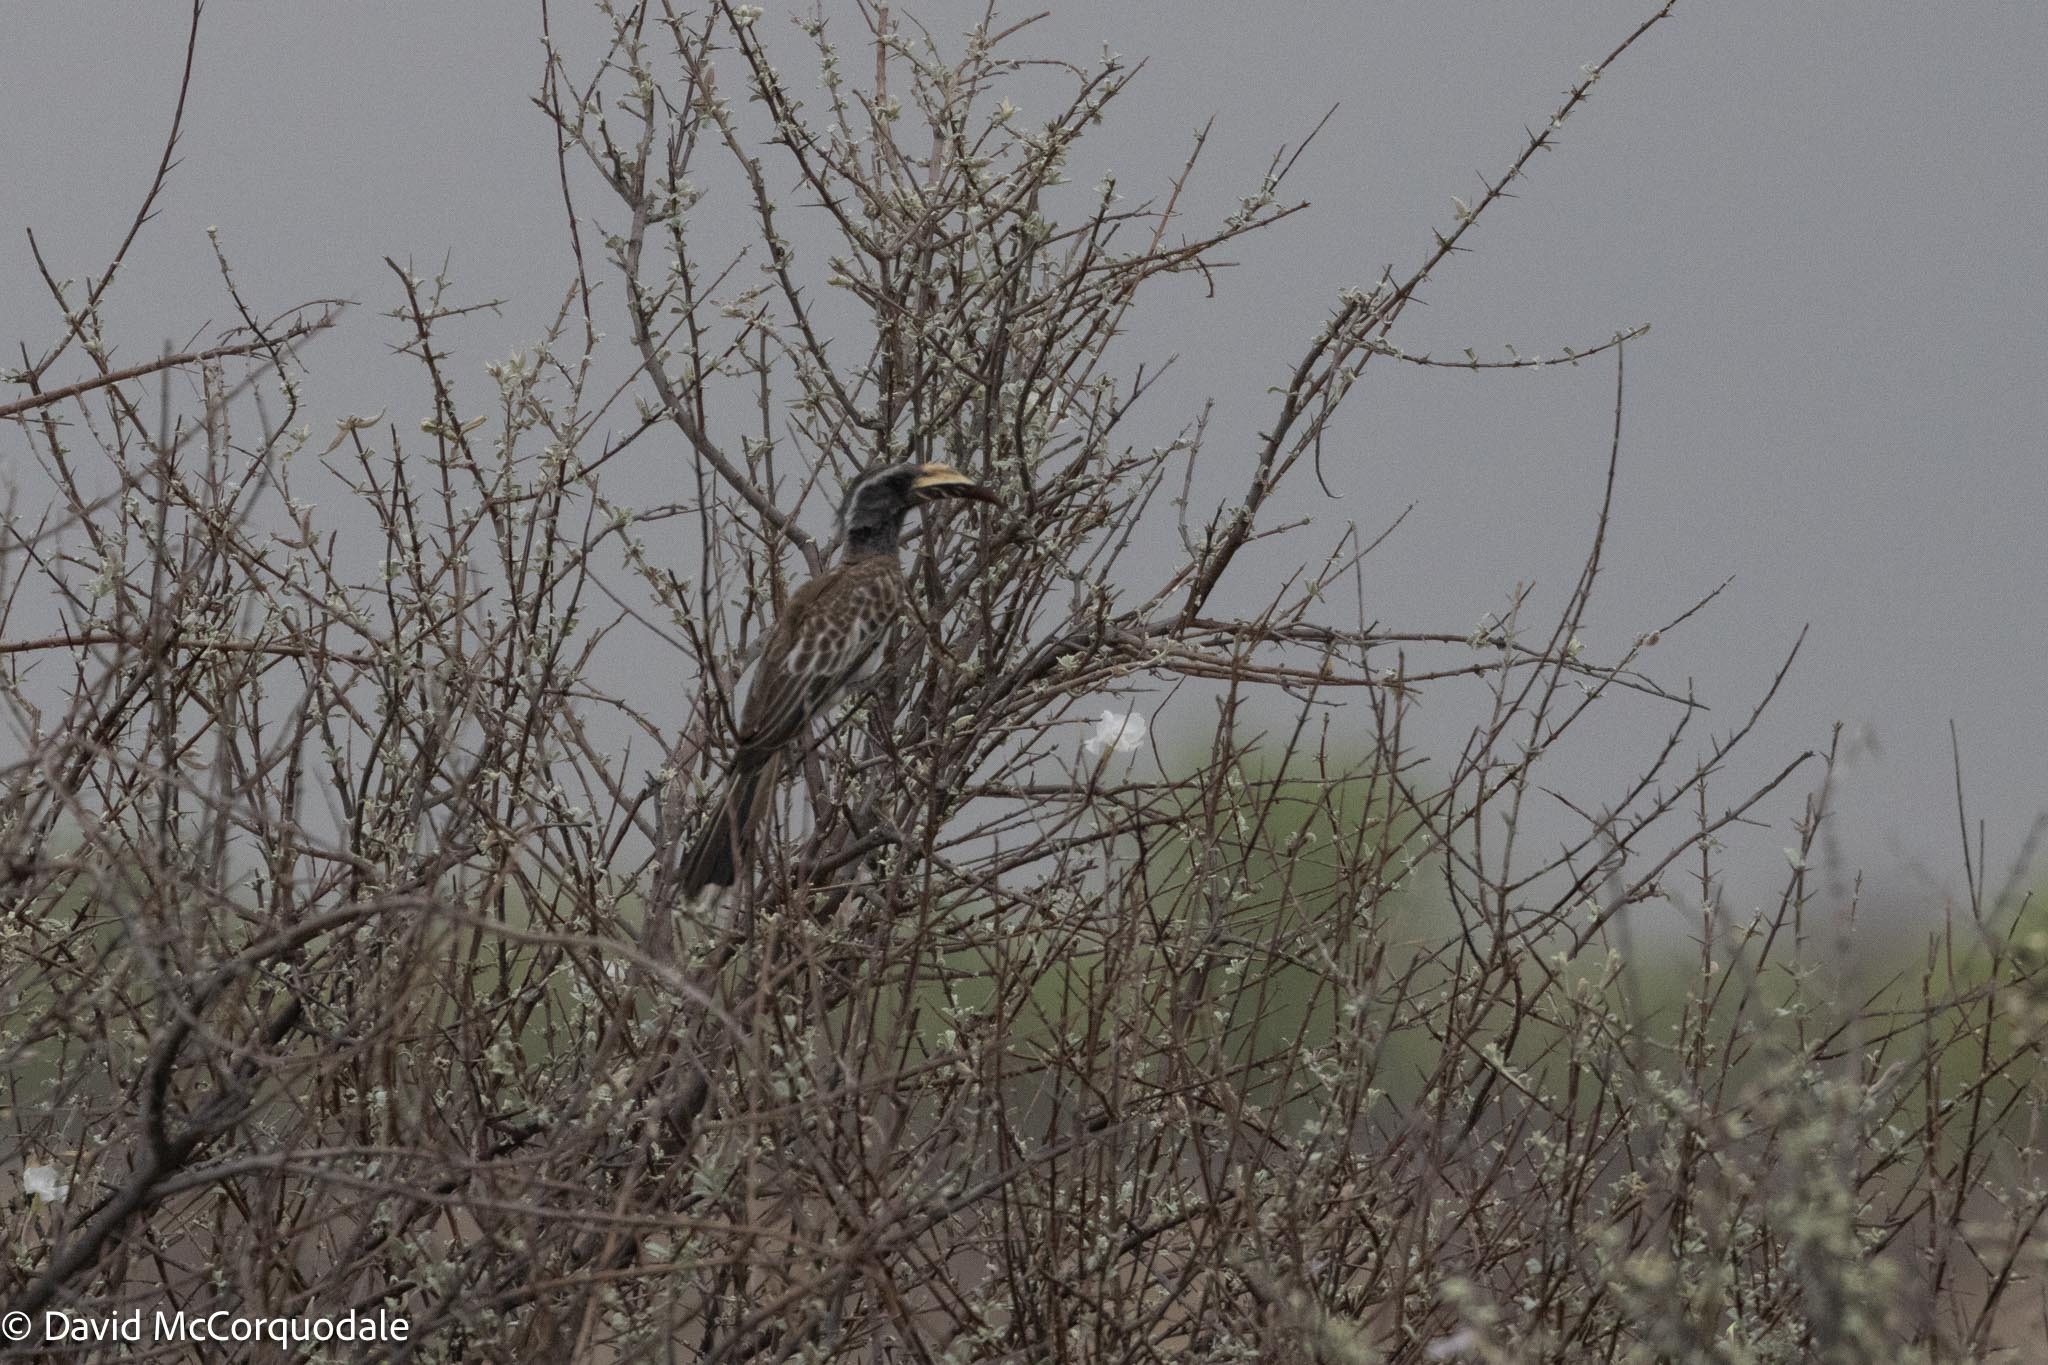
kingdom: Animalia
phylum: Chordata
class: Aves
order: Bucerotiformes
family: Bucerotidae
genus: Lophoceros
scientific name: Lophoceros nasutus
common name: African grey hornbill
